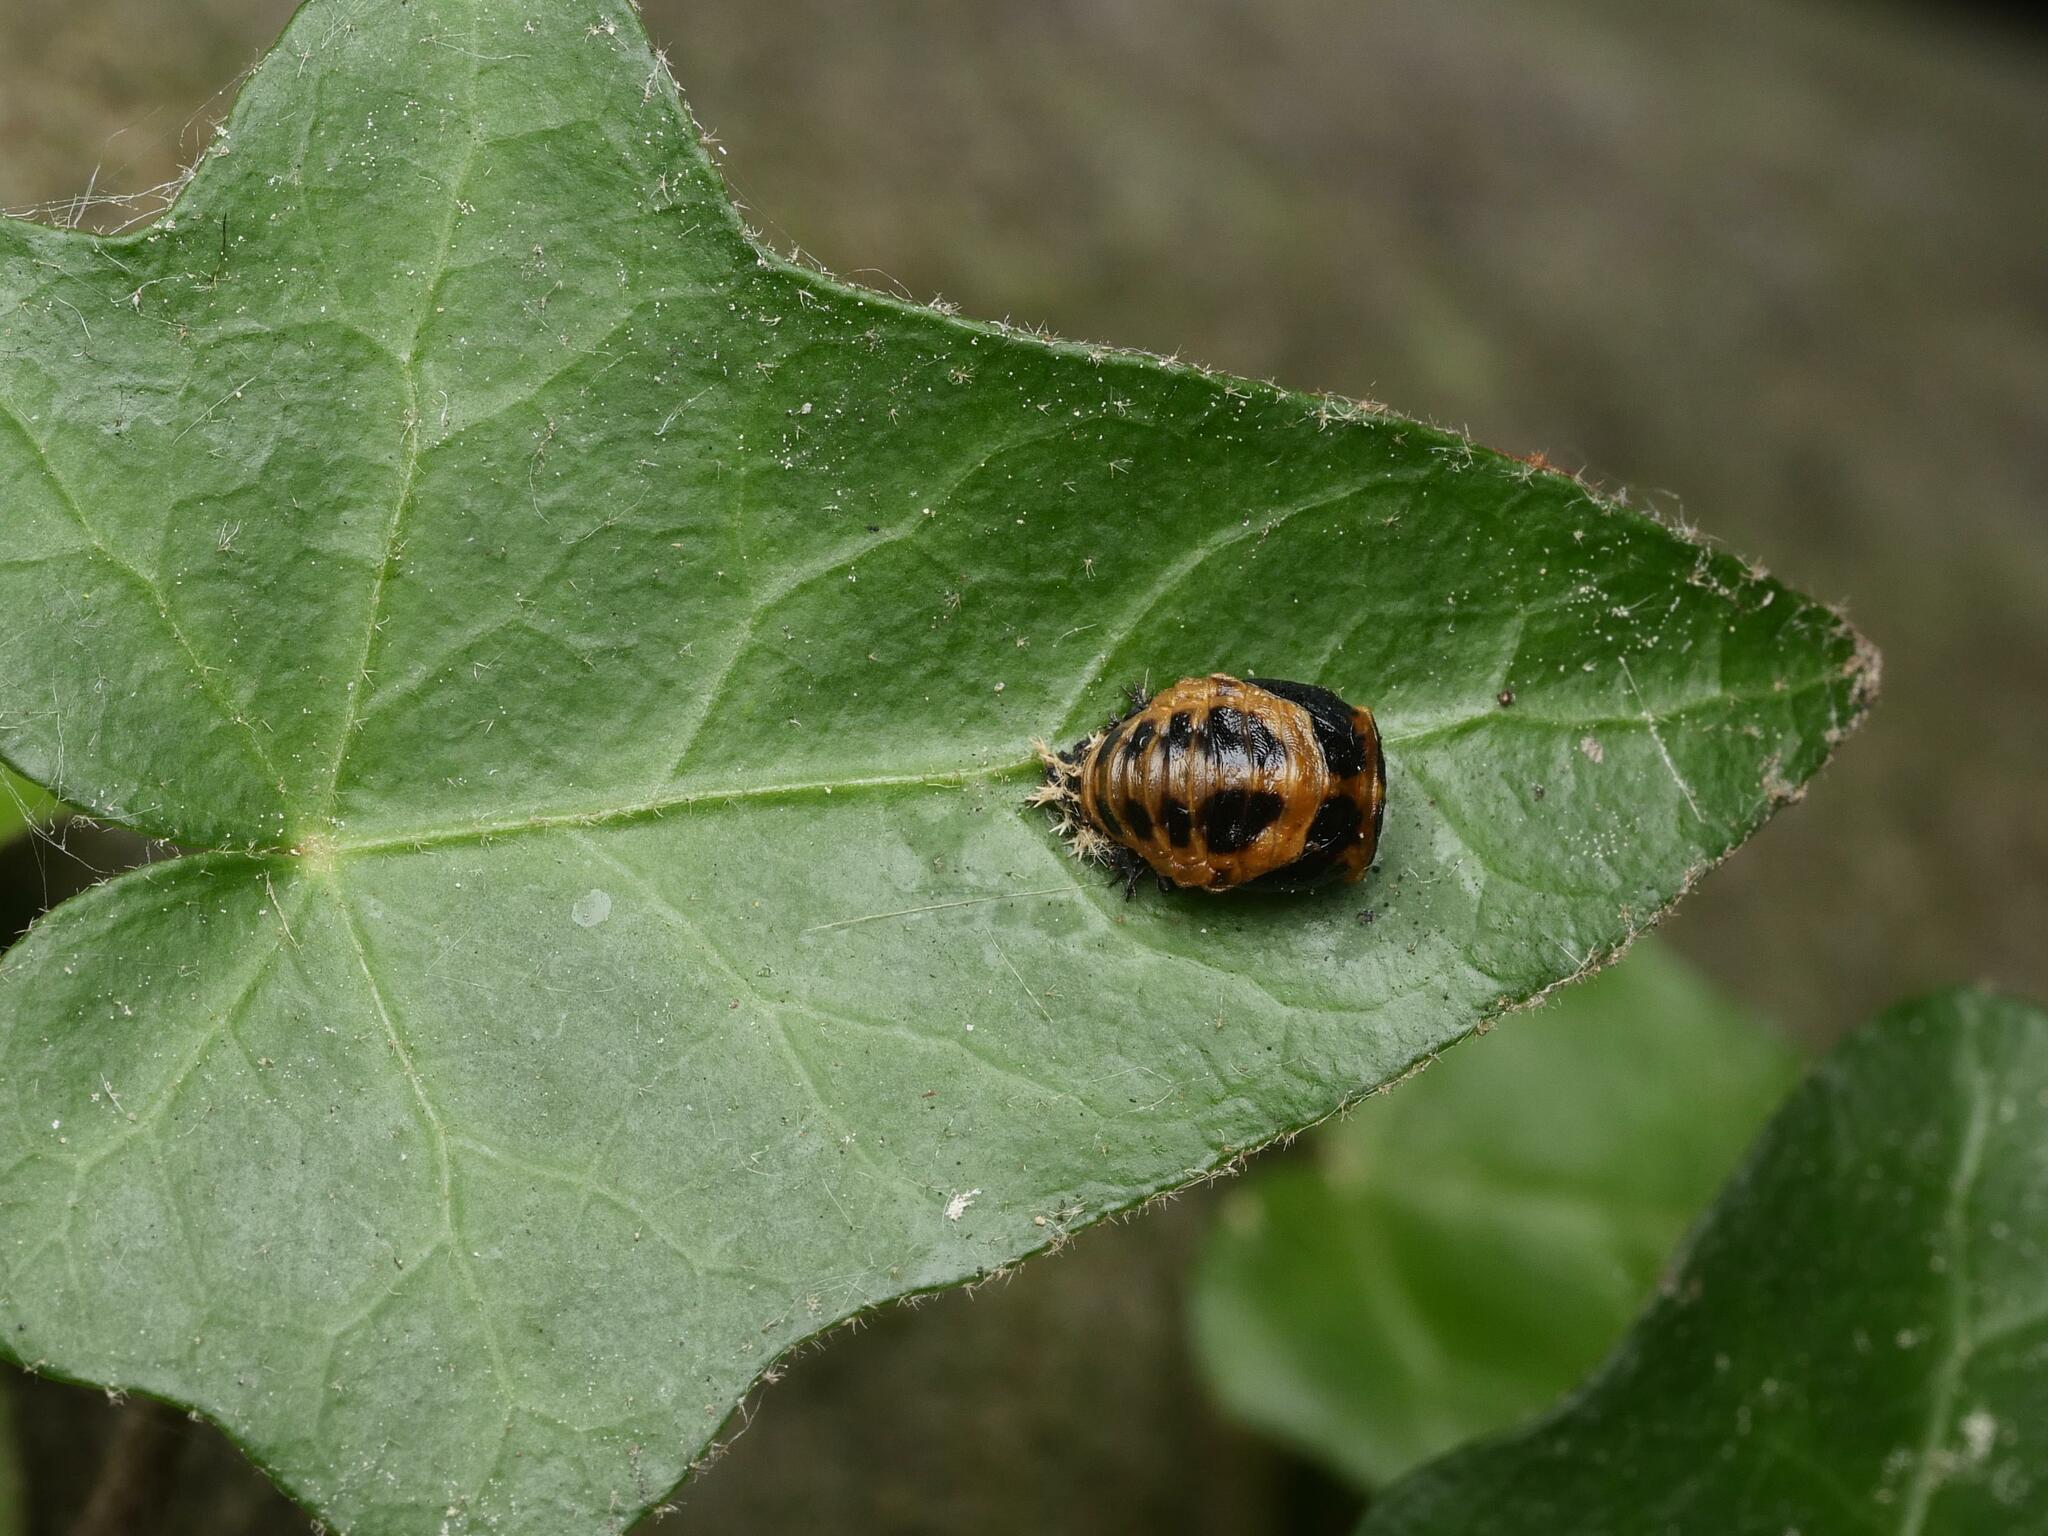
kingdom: Animalia
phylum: Arthropoda
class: Insecta
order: Coleoptera
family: Coccinellidae
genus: Harmonia
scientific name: Harmonia axyridis
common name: Harlequin ladybird
